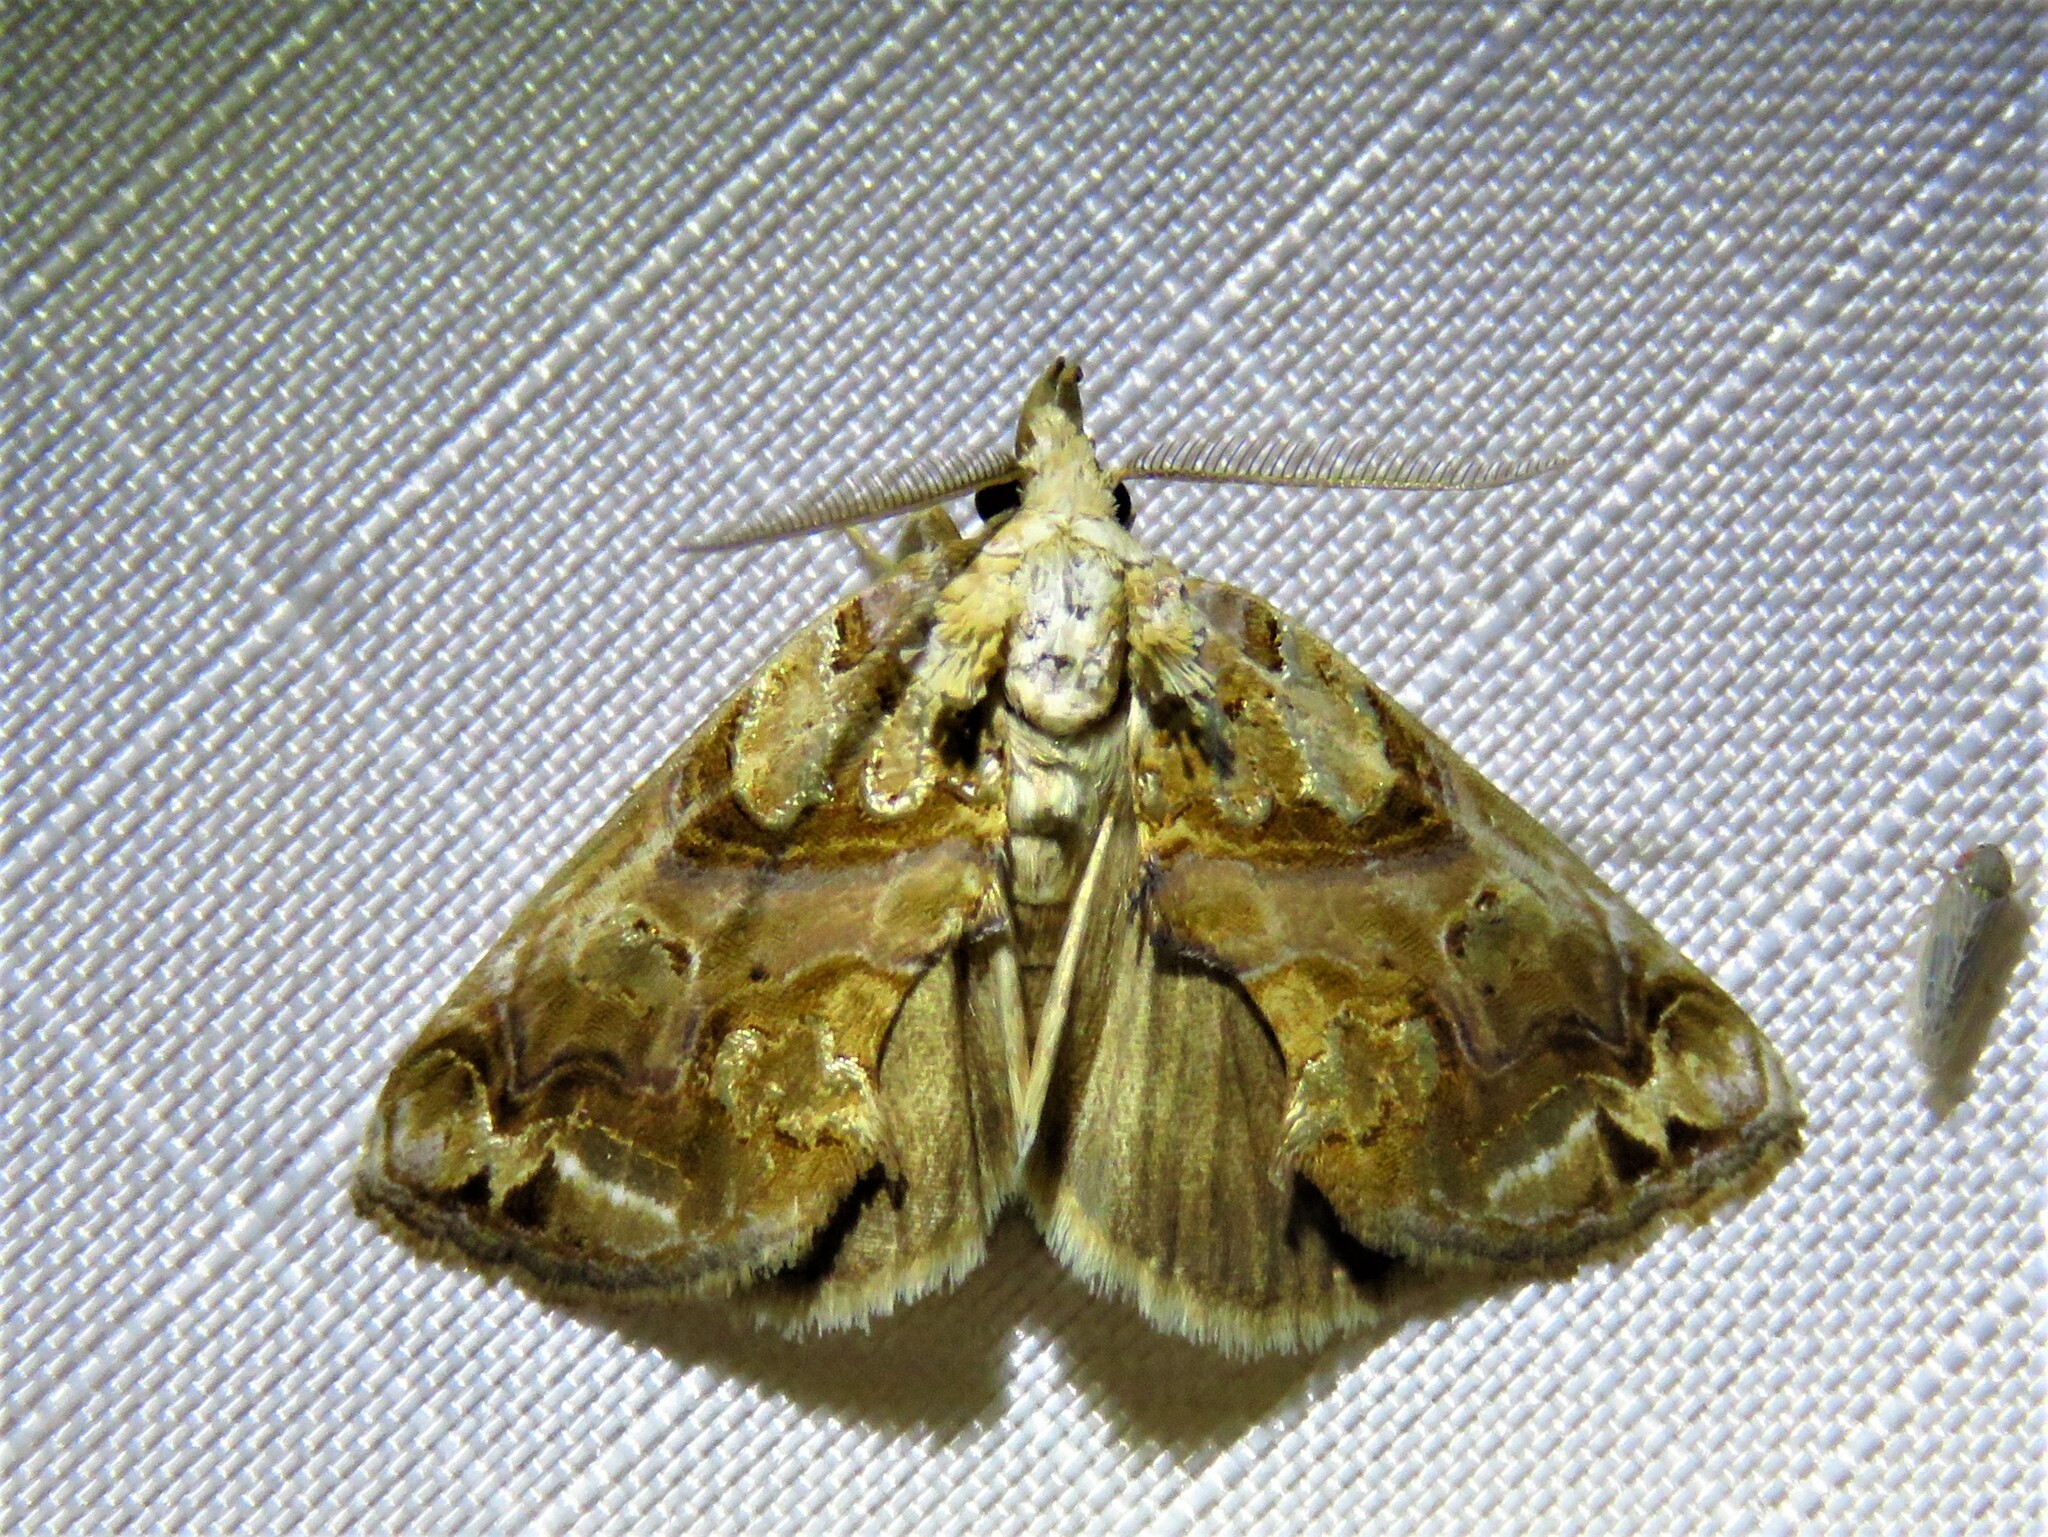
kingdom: Animalia
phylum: Arthropoda
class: Insecta
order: Lepidoptera
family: Erebidae
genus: Plusiodonta
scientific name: Plusiodonta compressipalpis
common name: Moonseed moth
